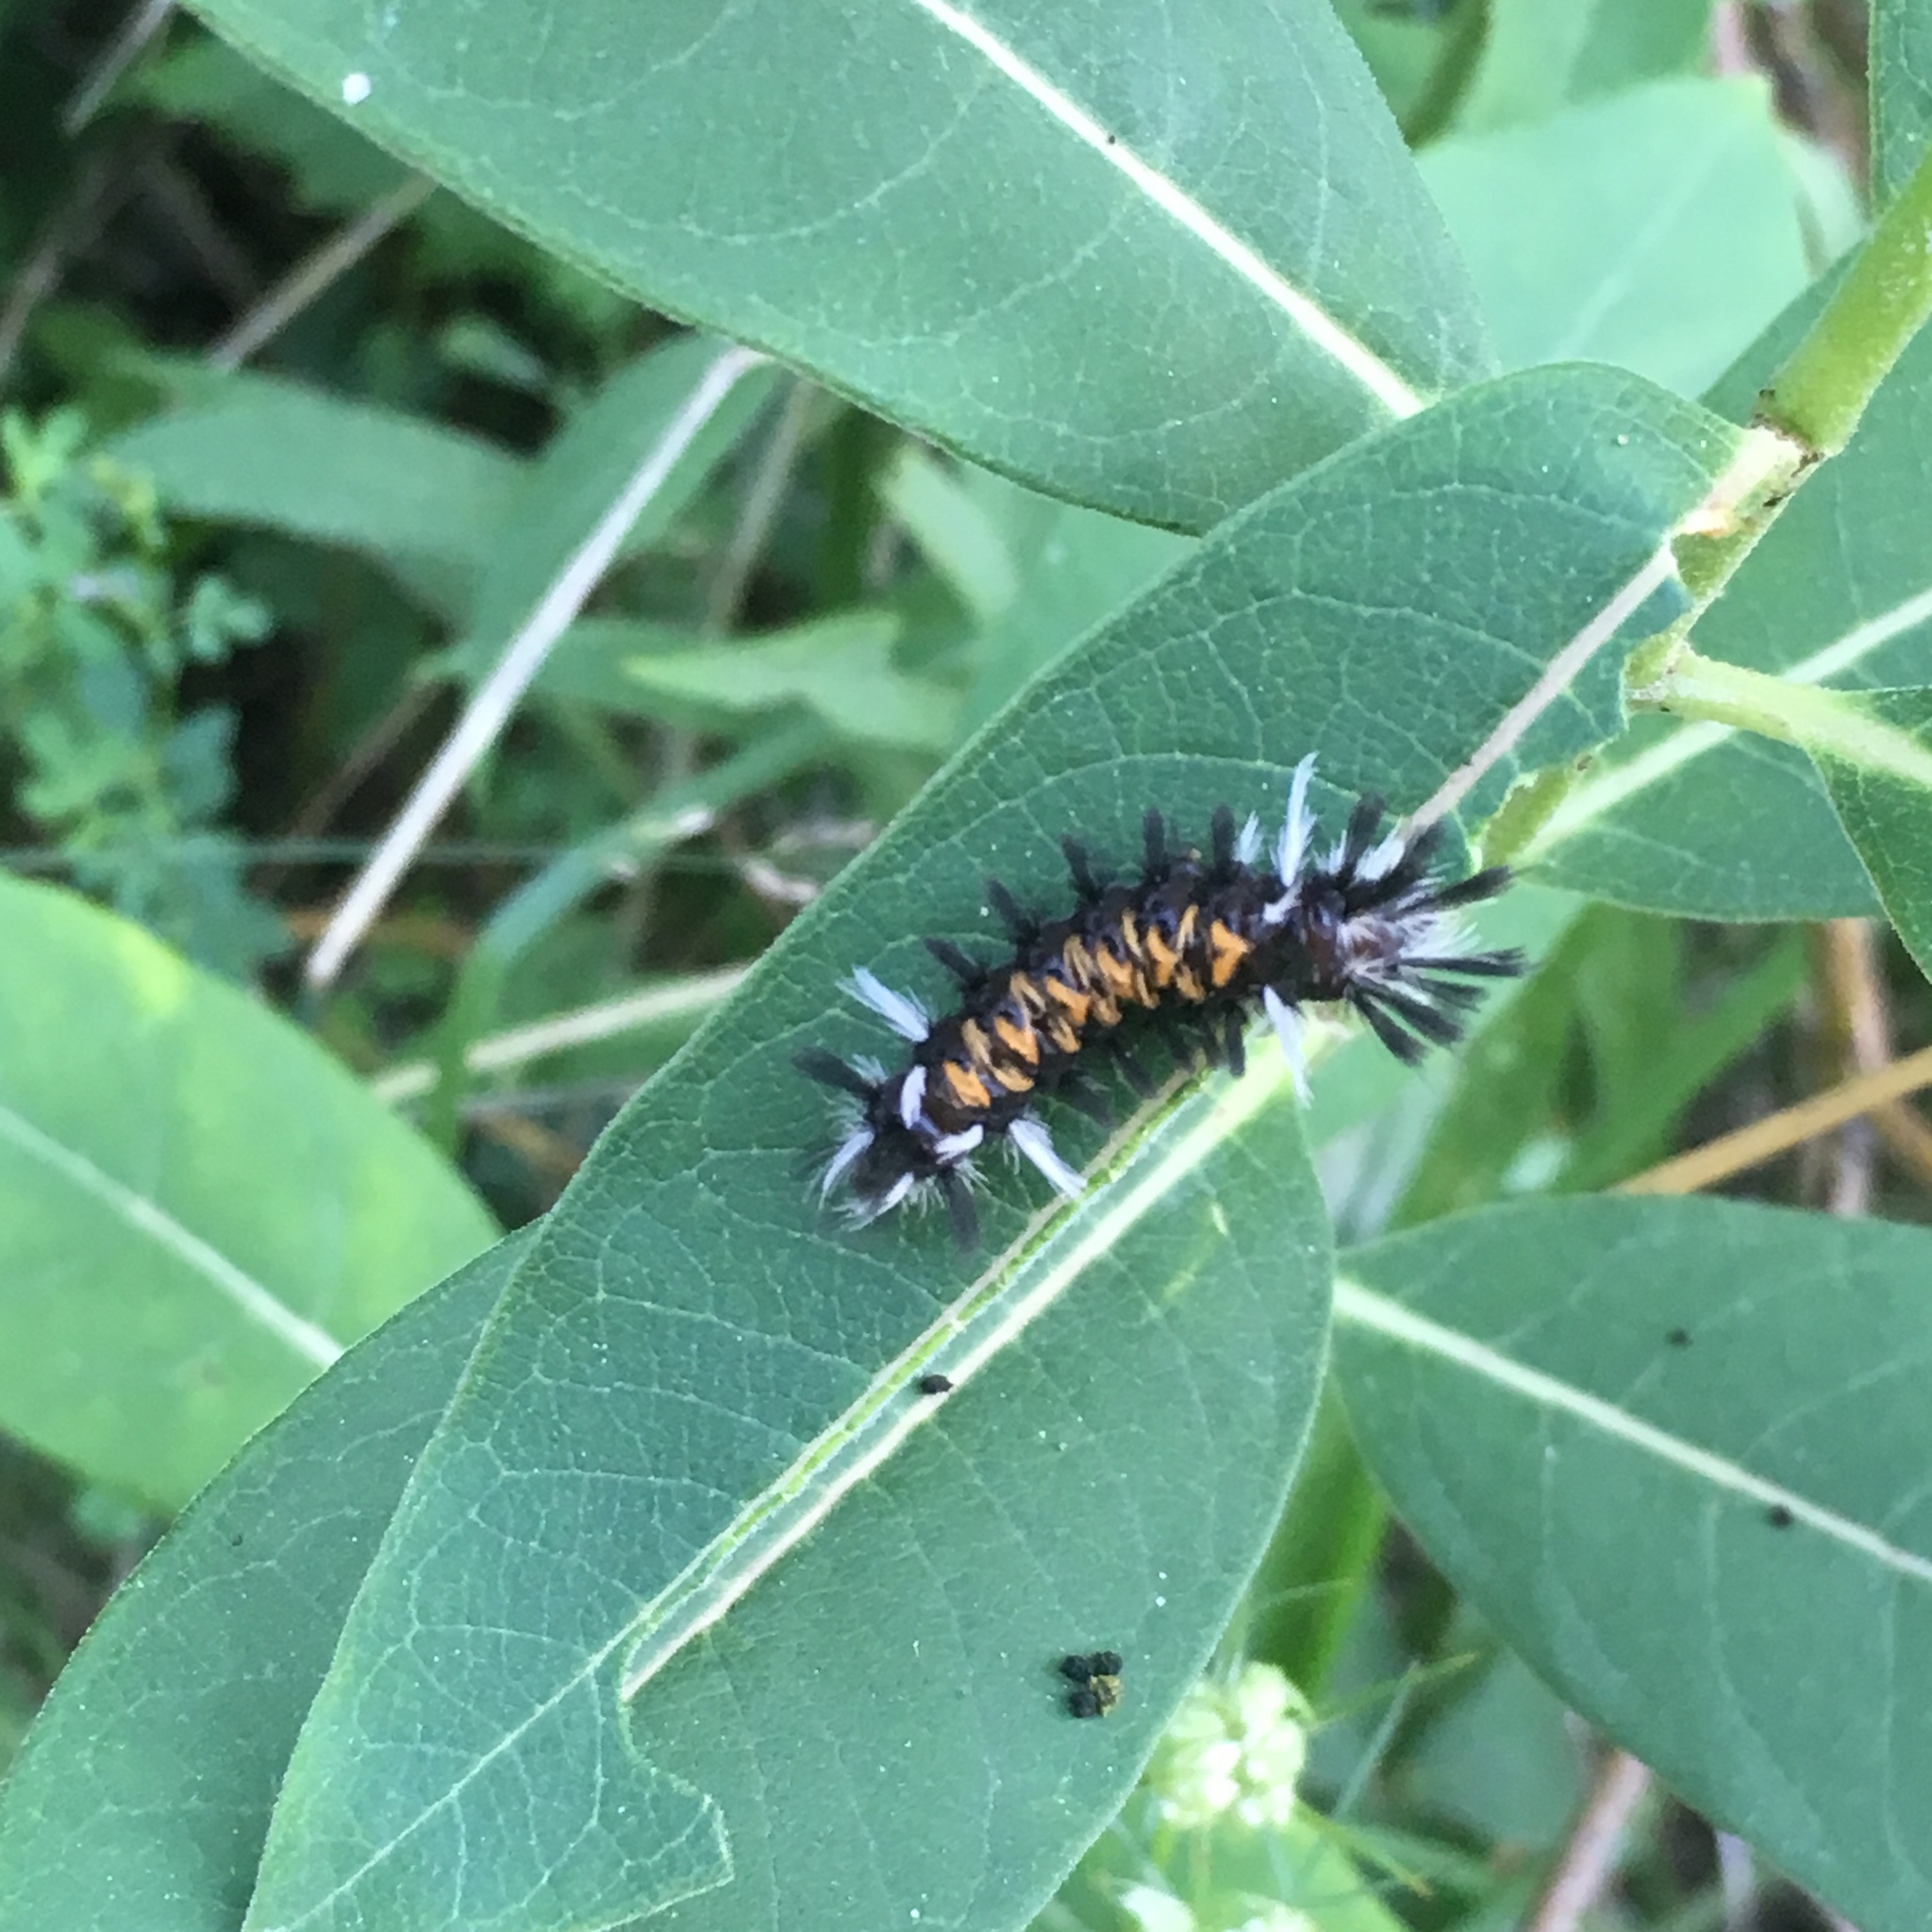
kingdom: Animalia
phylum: Arthropoda
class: Insecta
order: Lepidoptera
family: Erebidae
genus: Euchaetes
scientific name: Euchaetes egle
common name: Milkweed tussock moth
